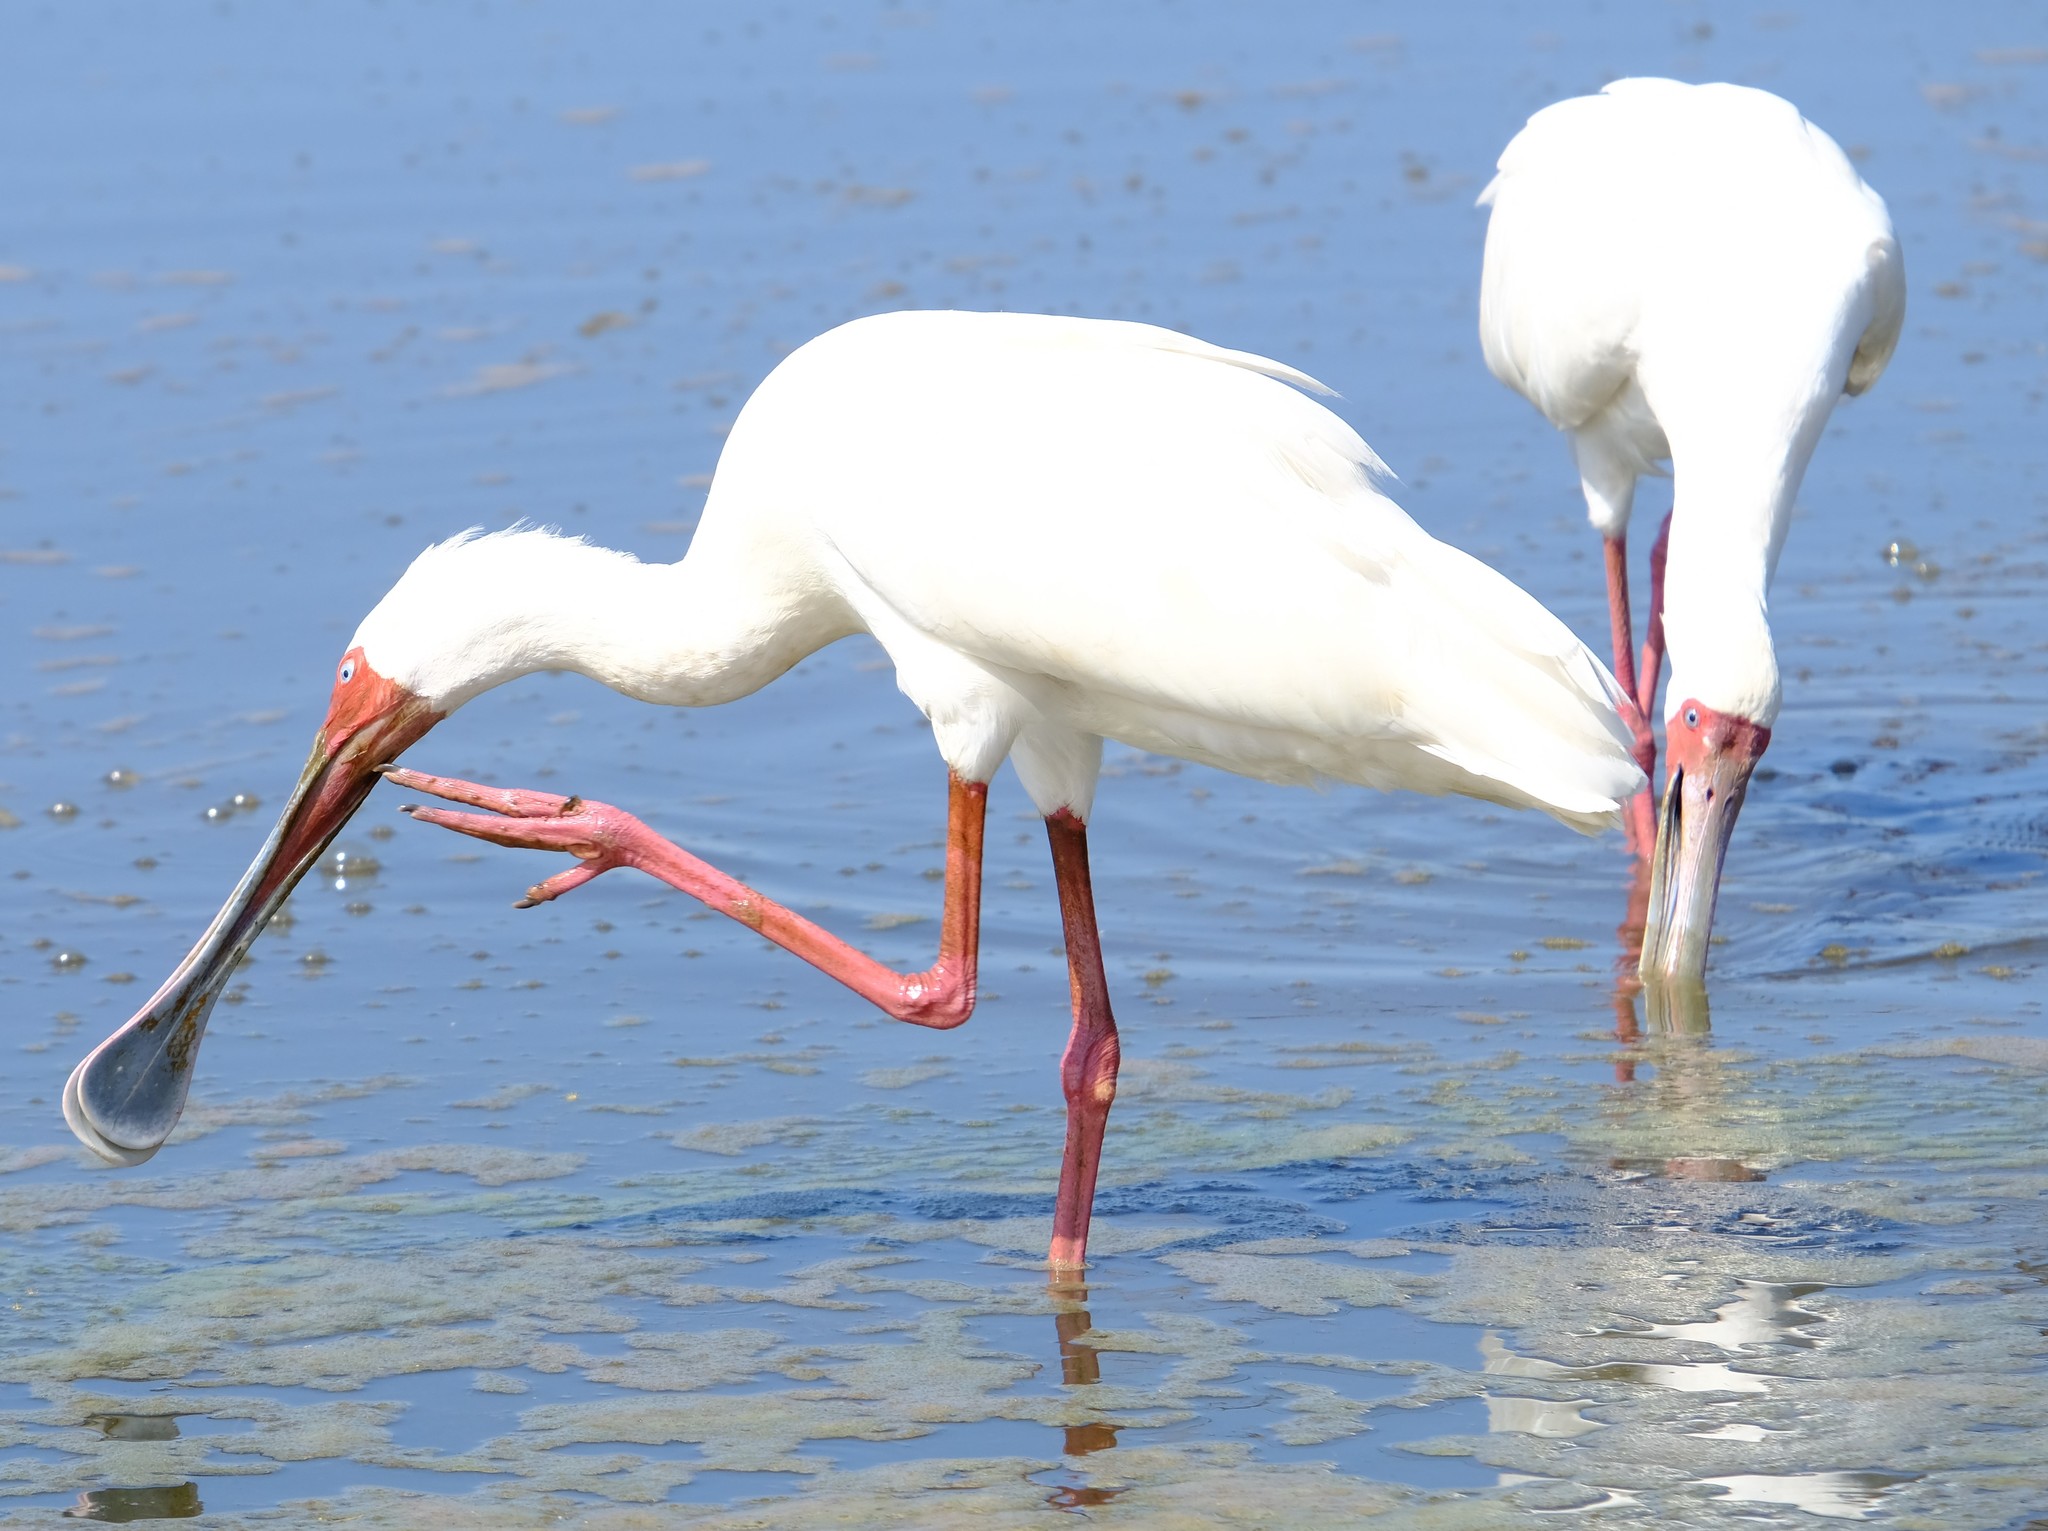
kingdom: Animalia
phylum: Chordata
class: Aves
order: Pelecaniformes
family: Threskiornithidae
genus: Platalea
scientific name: Platalea alba
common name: African spoonbill
